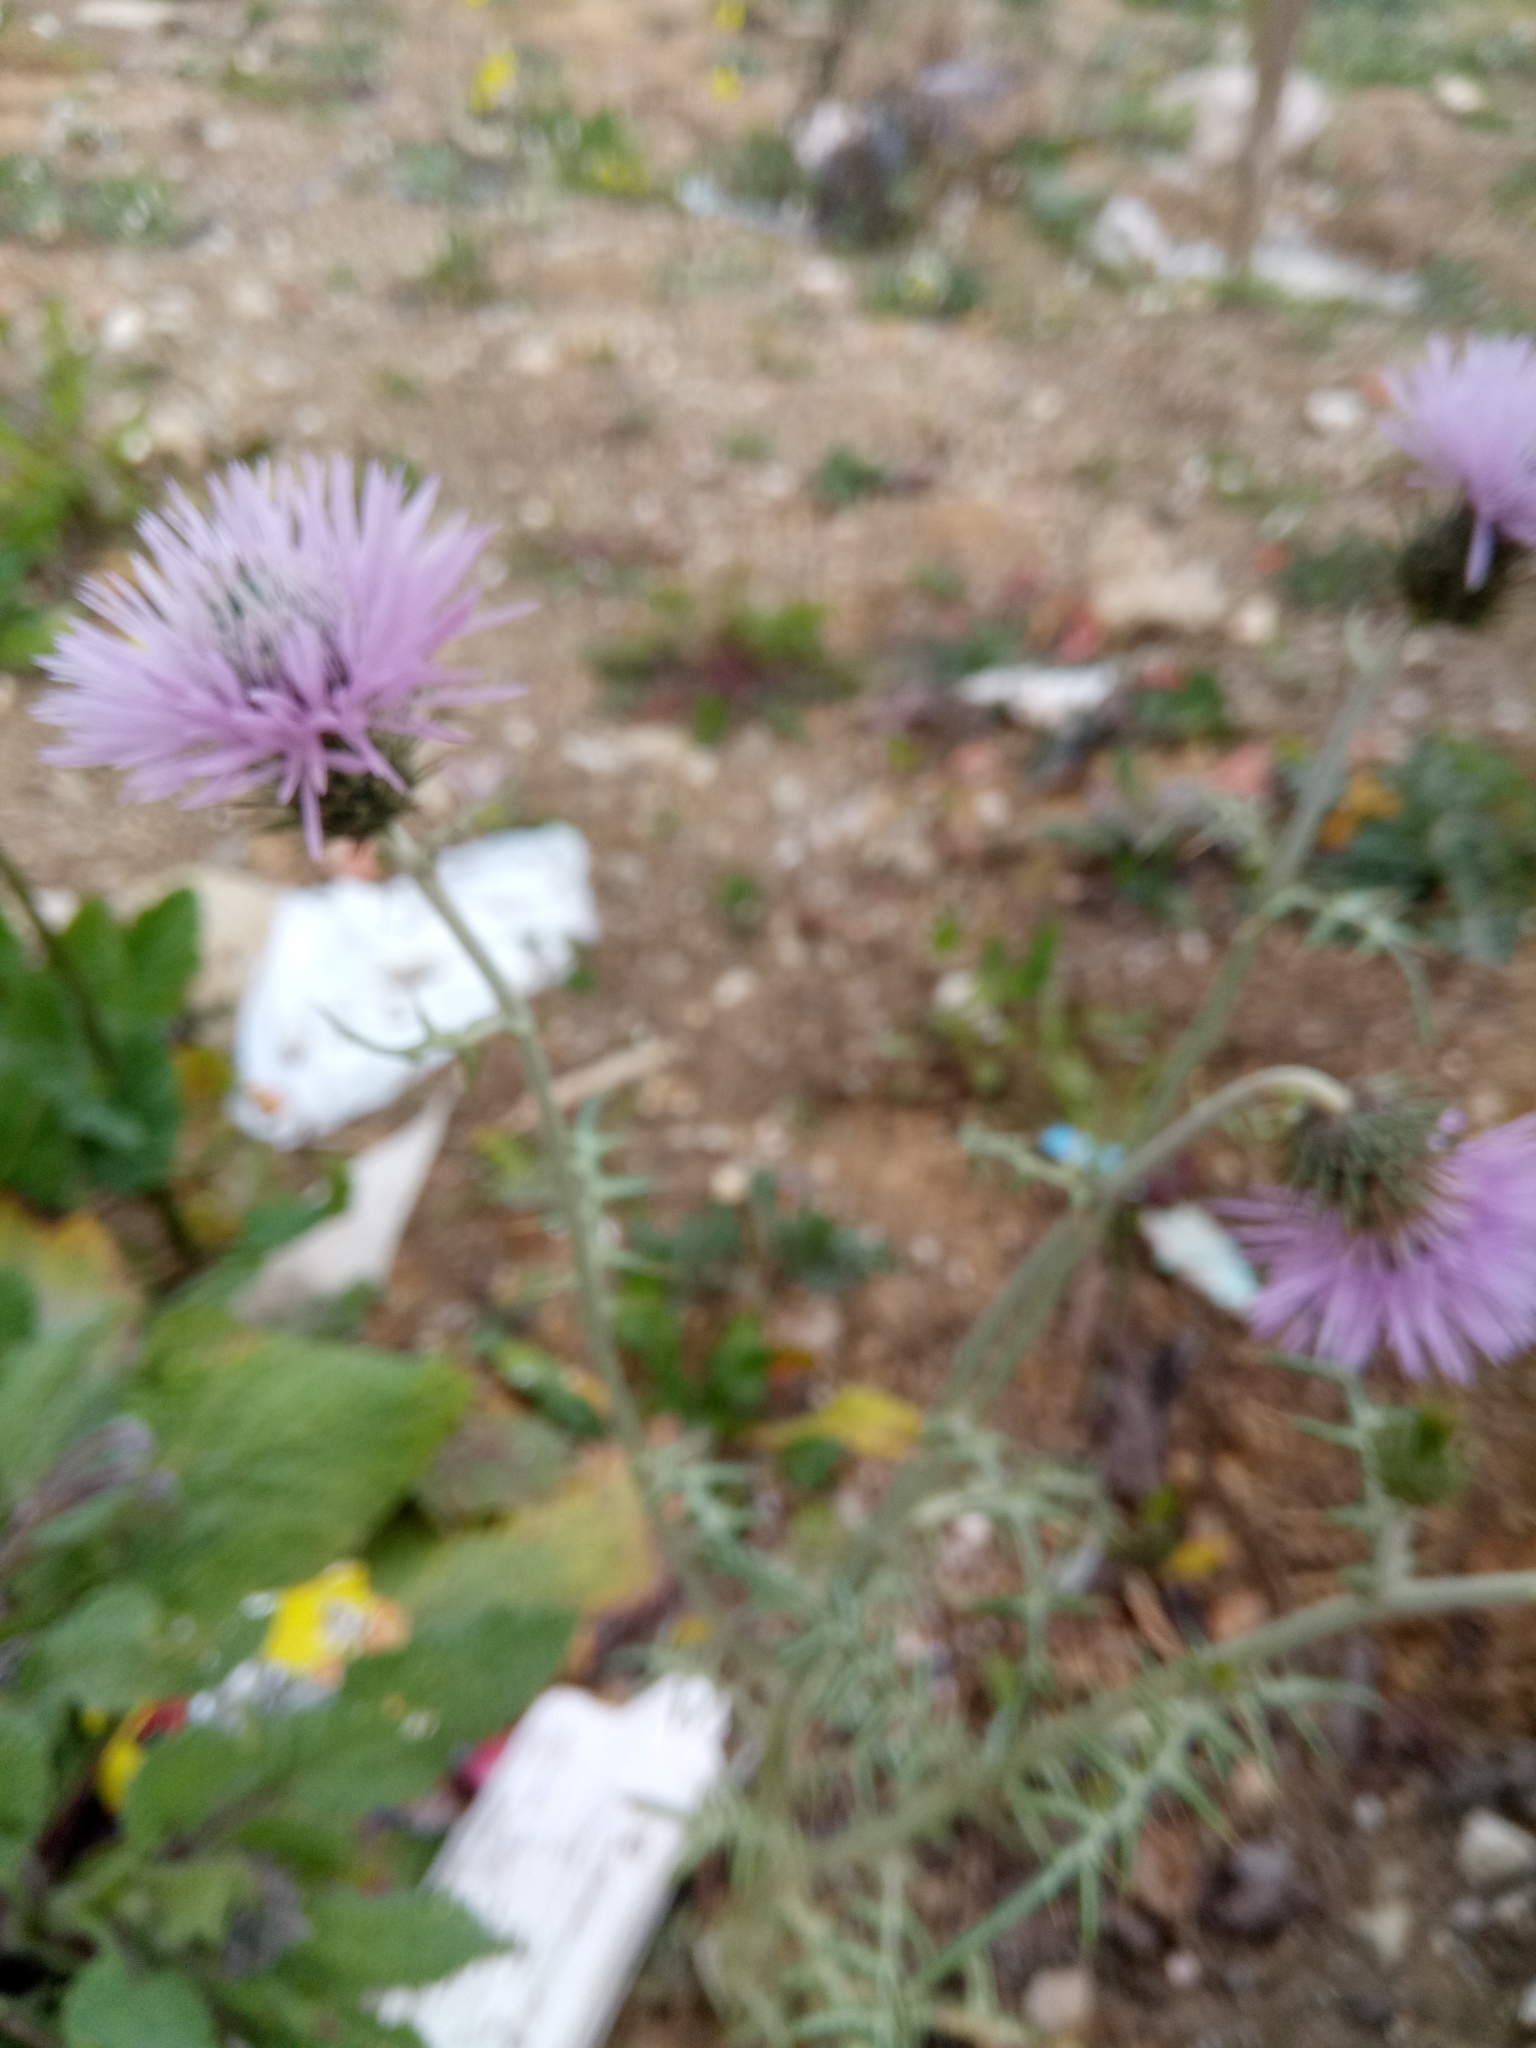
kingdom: Plantae
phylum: Tracheophyta
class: Magnoliopsida
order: Asterales
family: Asteraceae
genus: Galactites
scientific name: Galactites tomentosa
